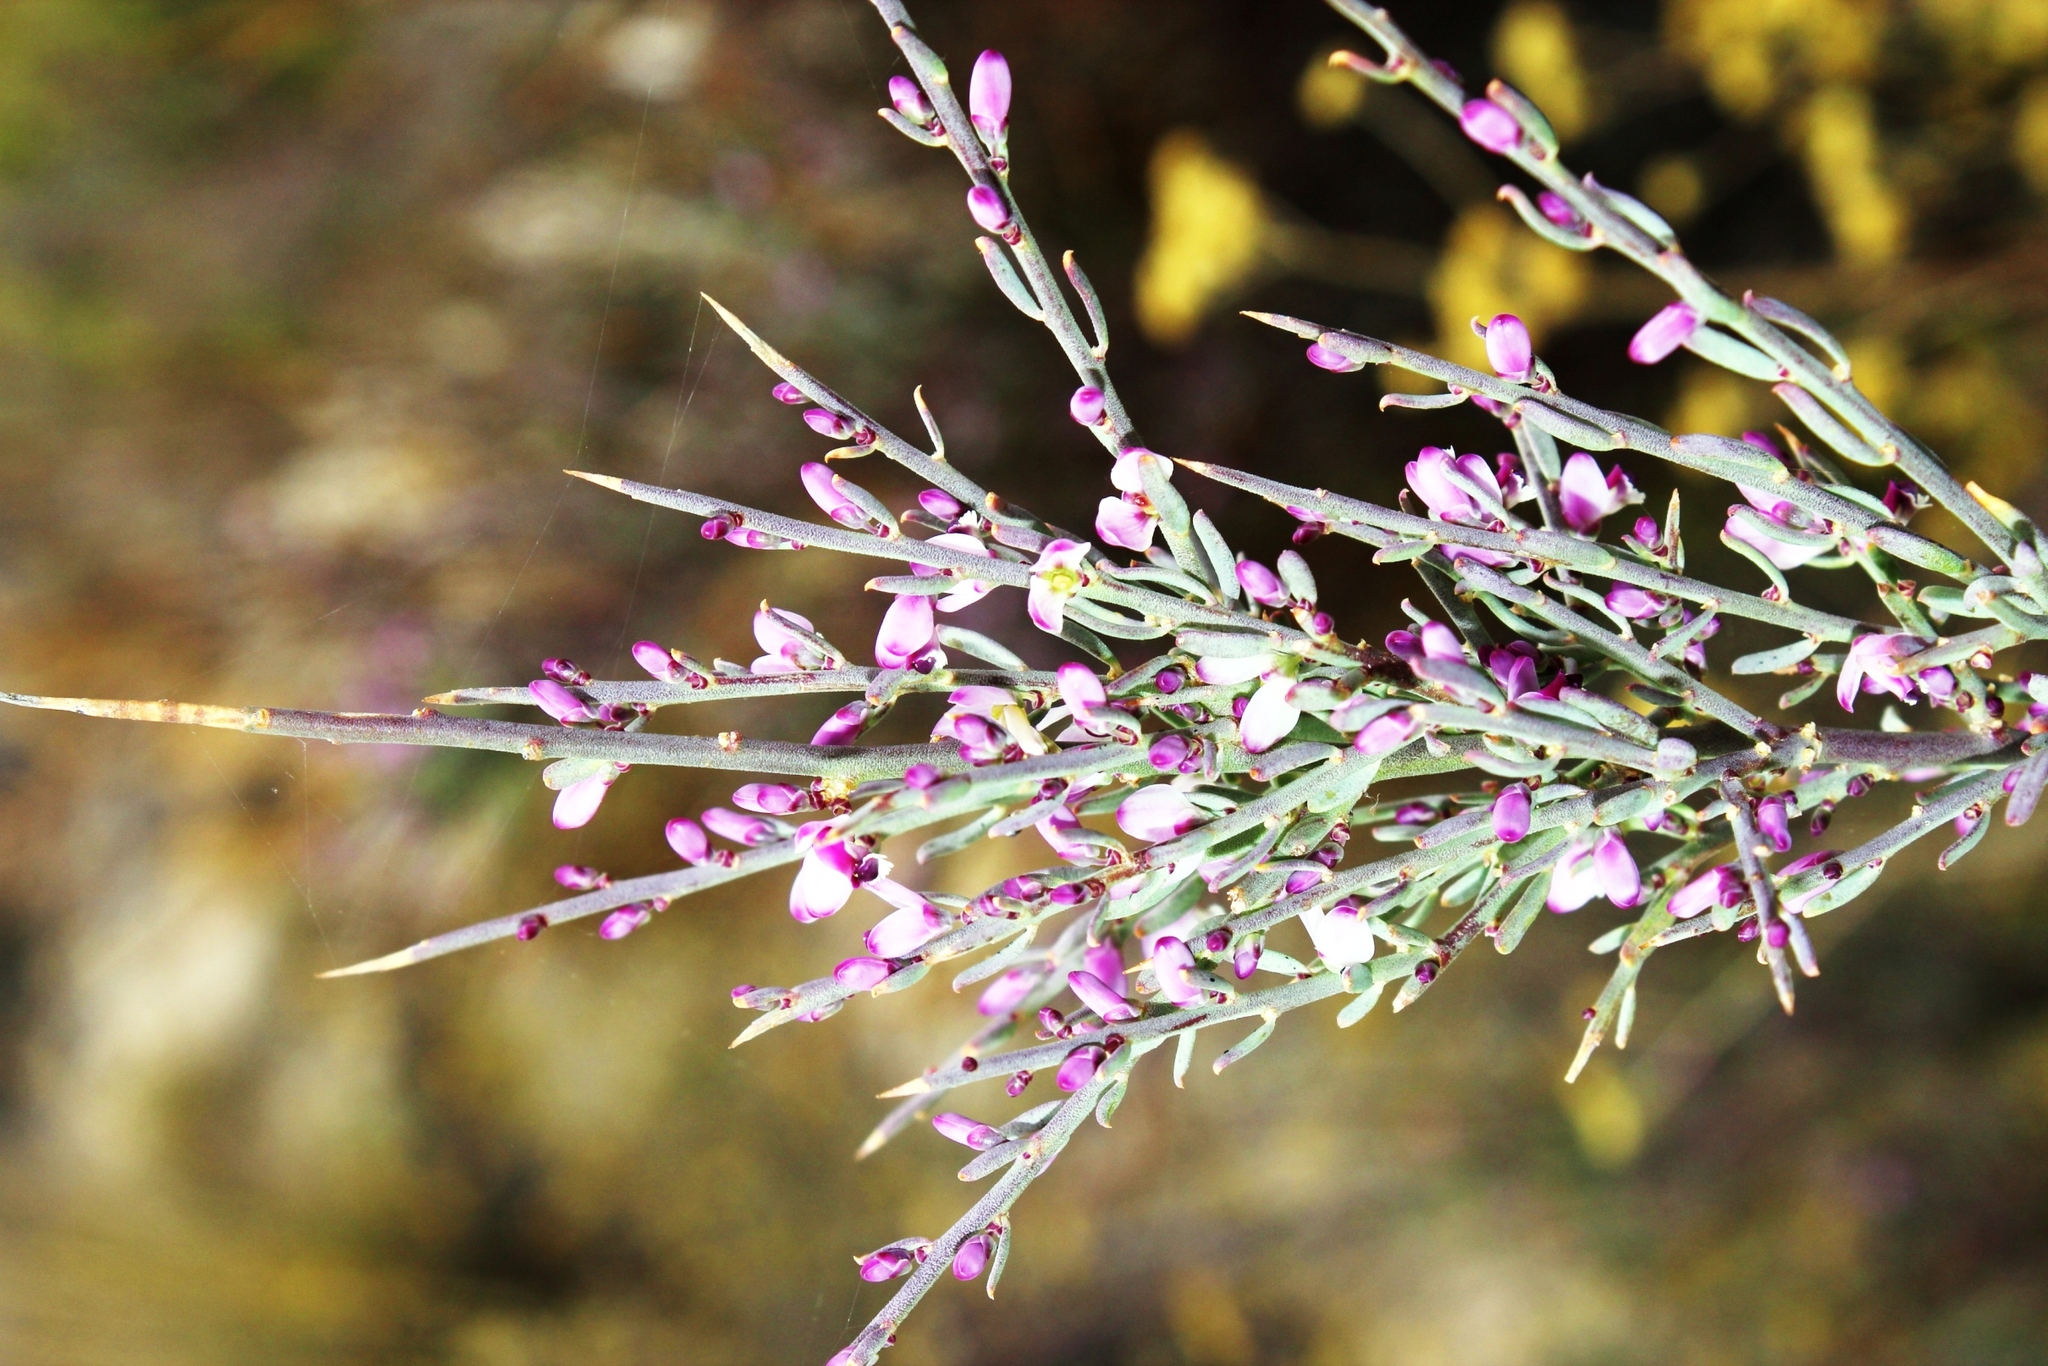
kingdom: Plantae
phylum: Tracheophyta
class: Magnoliopsida
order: Fabales
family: Polygalaceae
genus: Muraltia
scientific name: Muraltia spinosa
